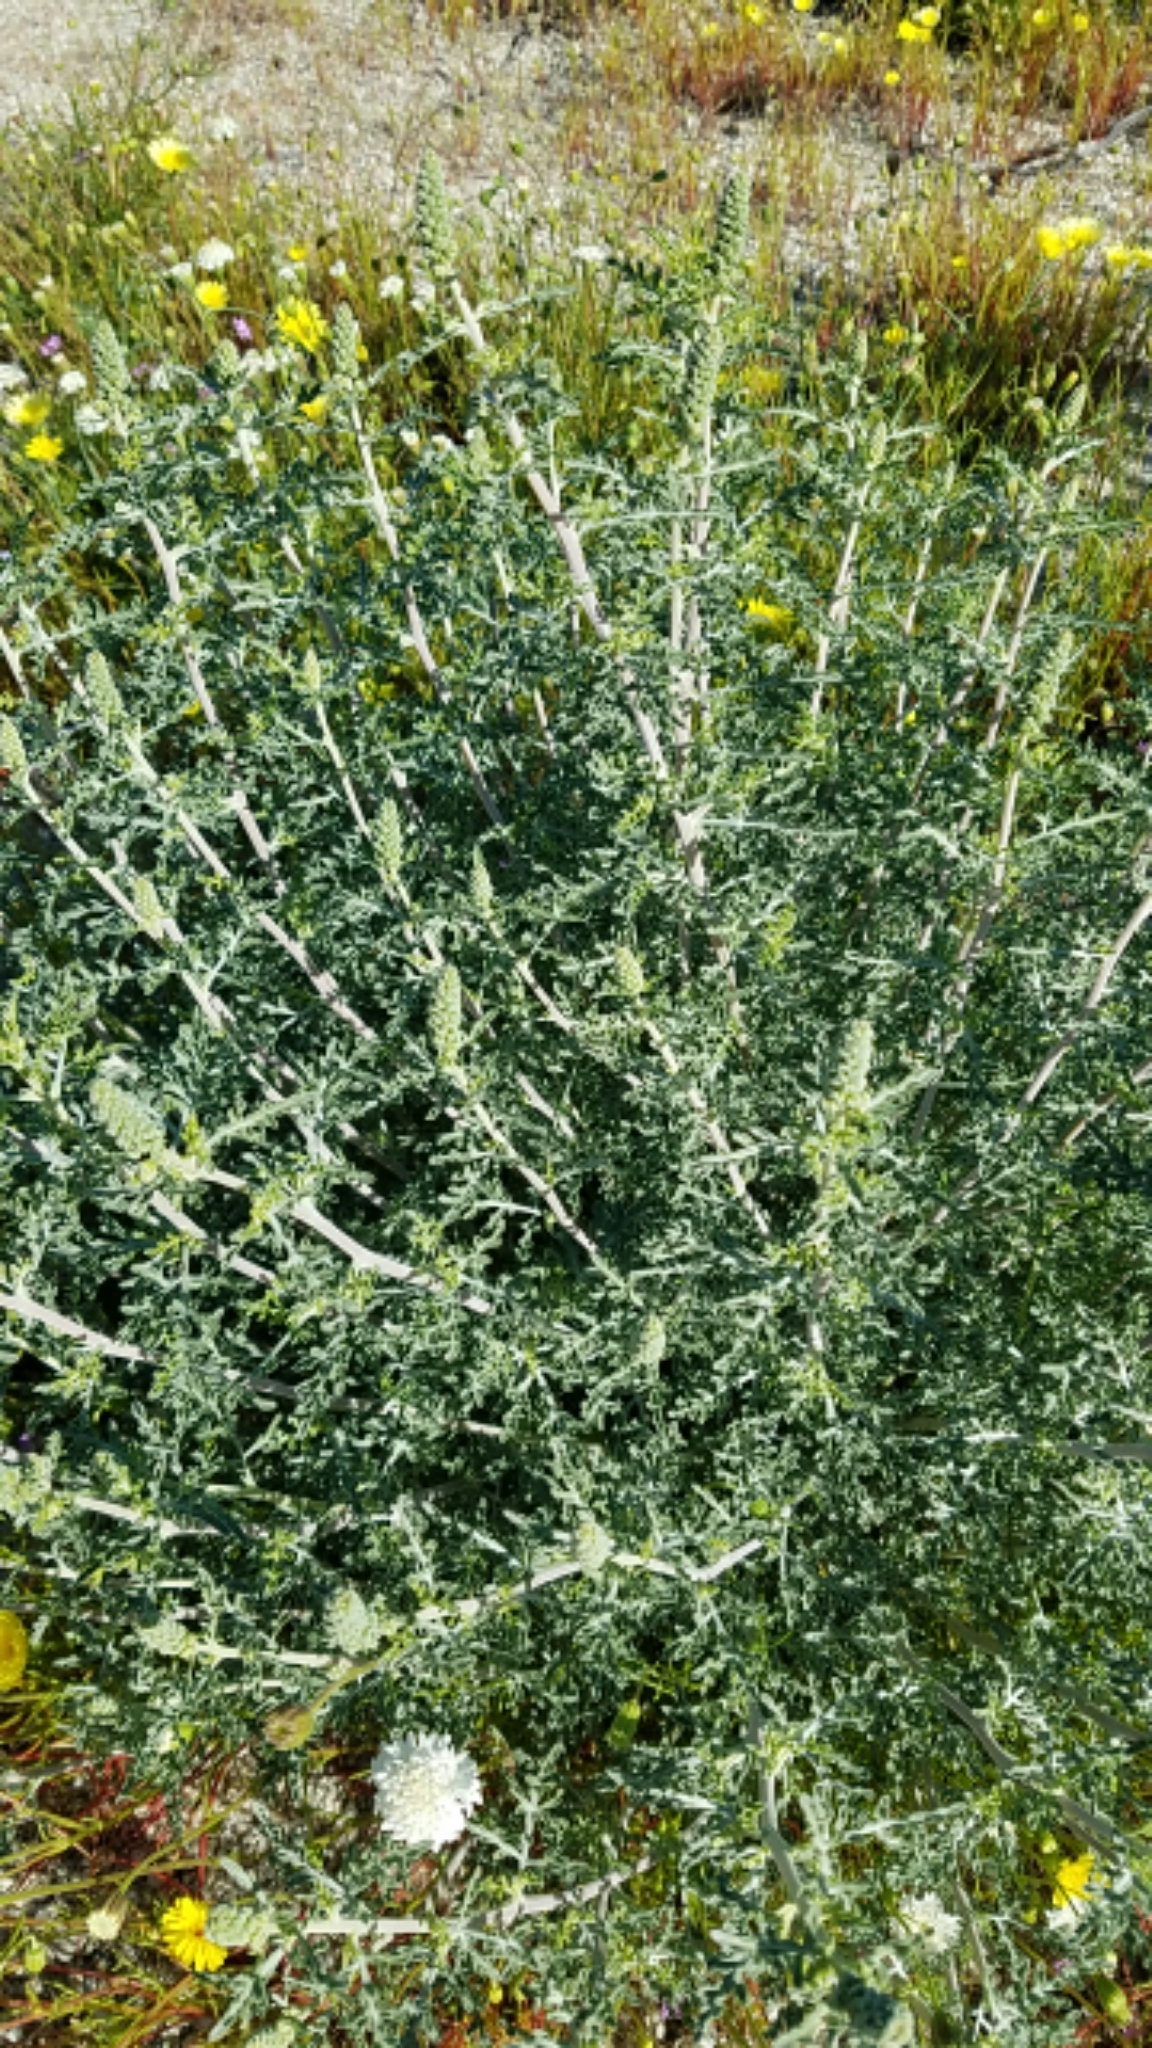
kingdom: Plantae
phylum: Tracheophyta
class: Magnoliopsida
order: Asterales
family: Asteraceae
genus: Ambrosia
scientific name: Ambrosia dumosa
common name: Bur-sage
